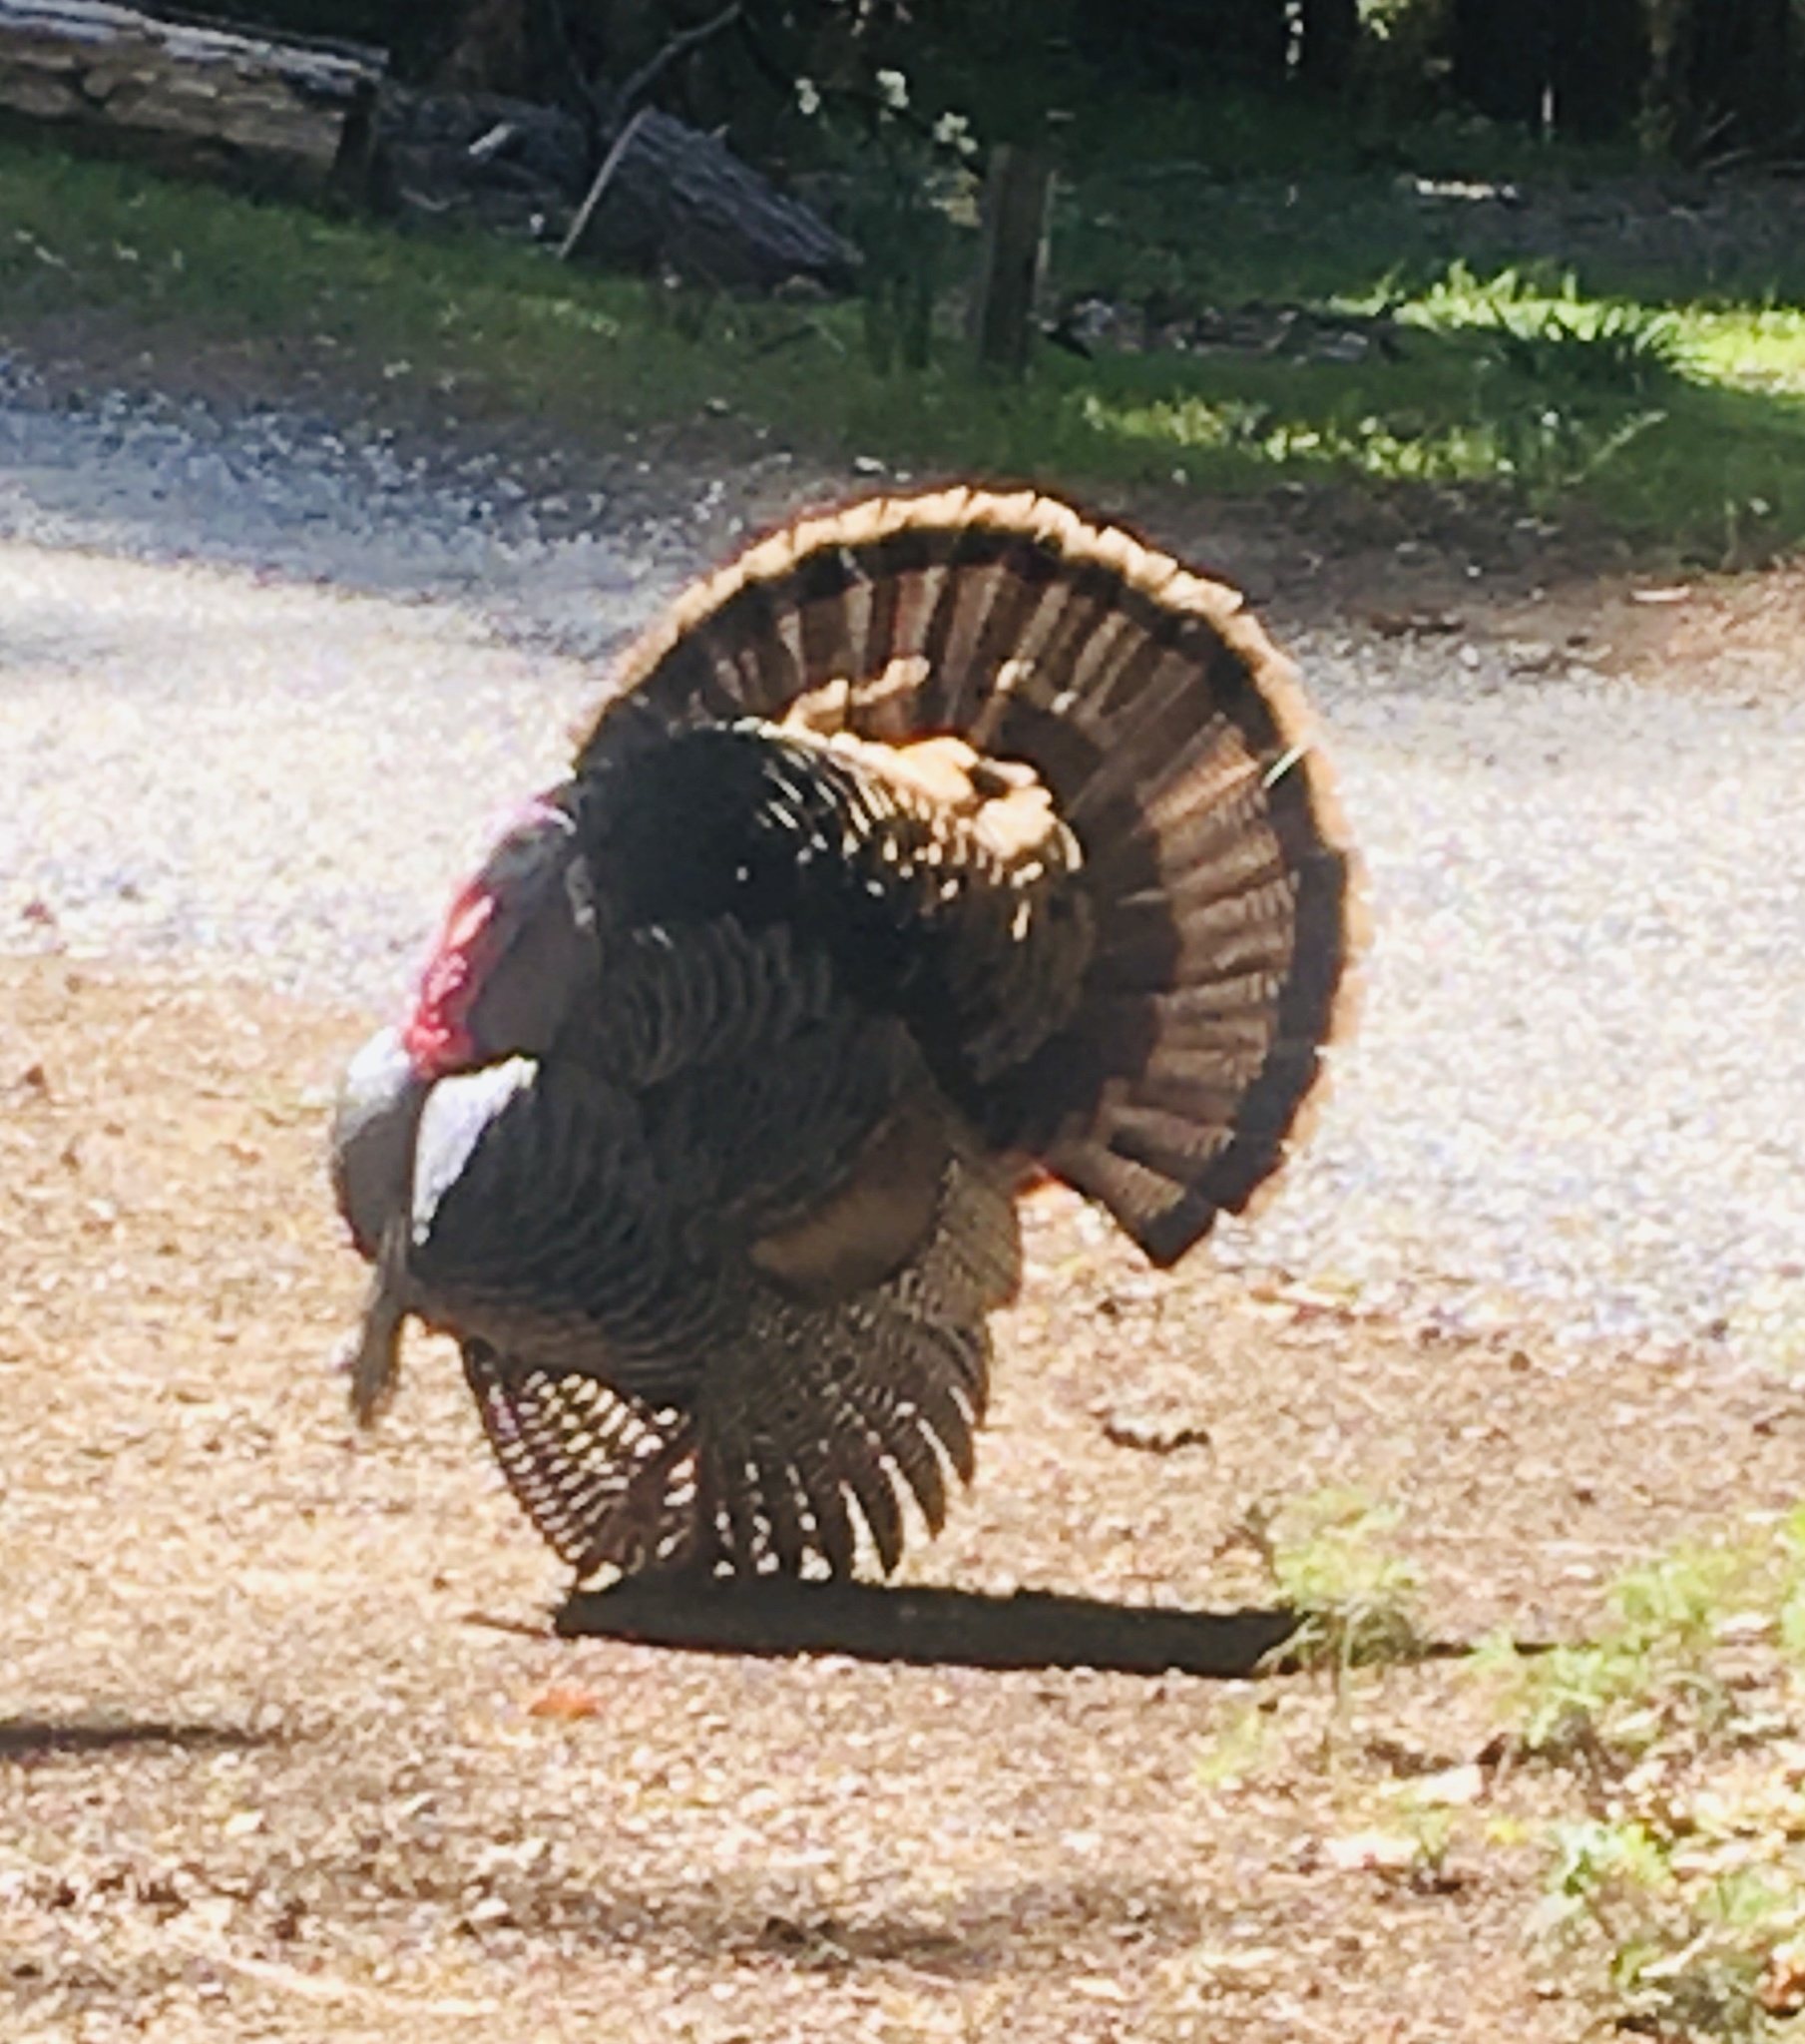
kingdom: Animalia
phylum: Chordata
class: Aves
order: Galliformes
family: Phasianidae
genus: Meleagris
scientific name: Meleagris gallopavo
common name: Wild turkey
